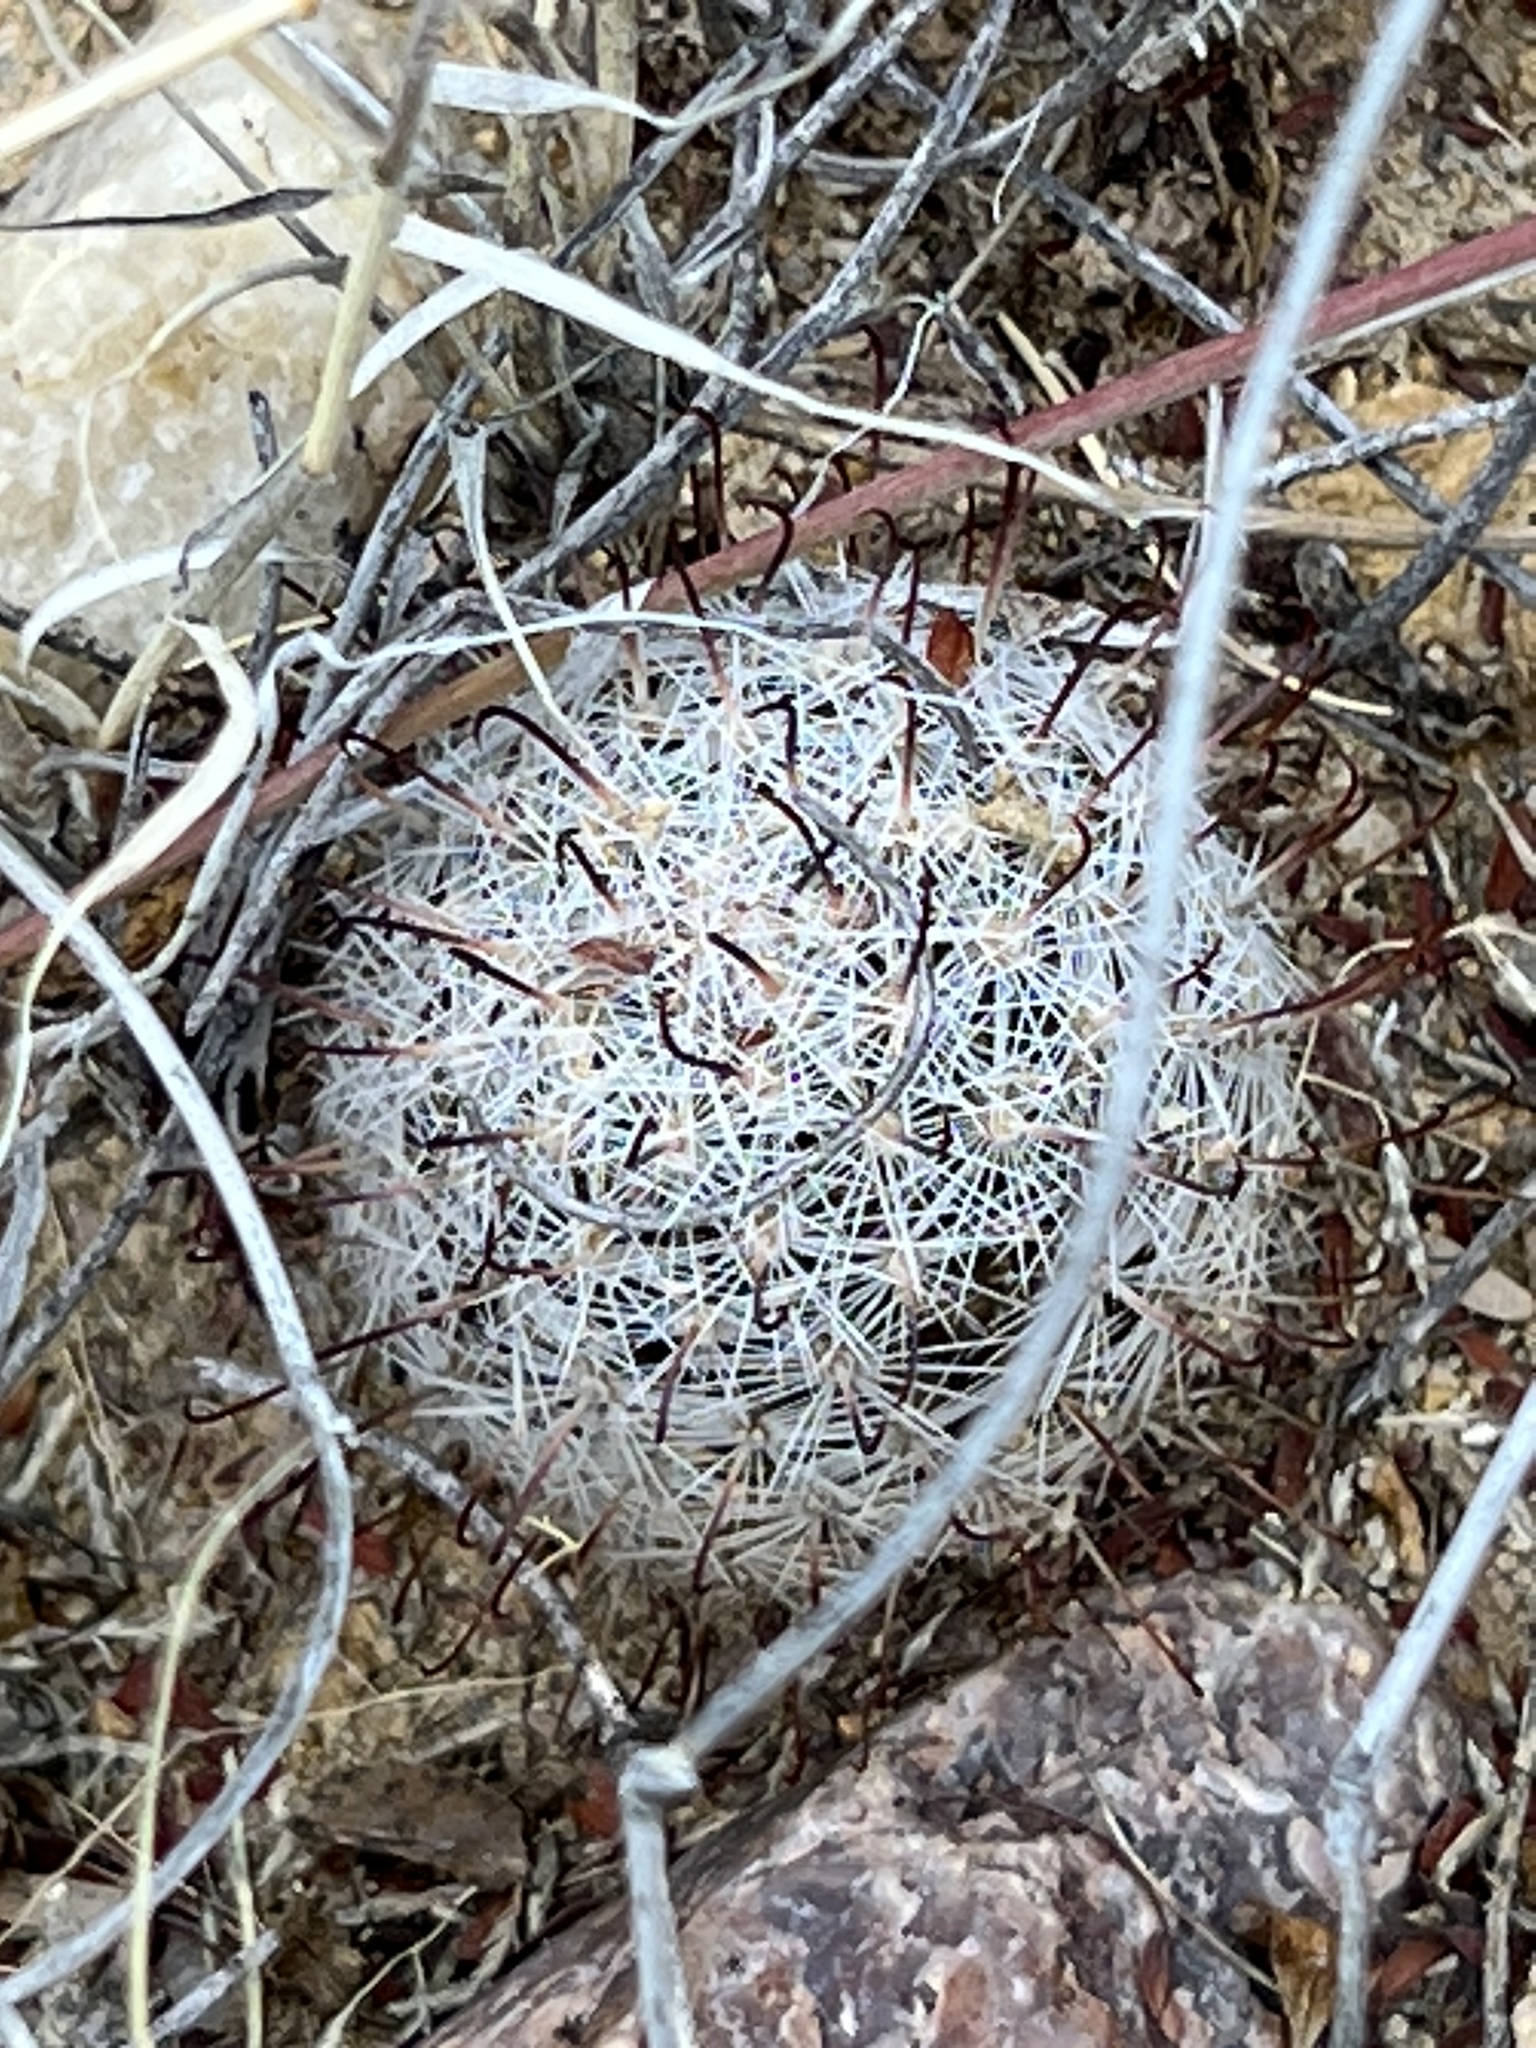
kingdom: Plantae
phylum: Tracheophyta
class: Magnoliopsida
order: Caryophyllales
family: Cactaceae
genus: Cochemiea
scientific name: Cochemiea grahamii
